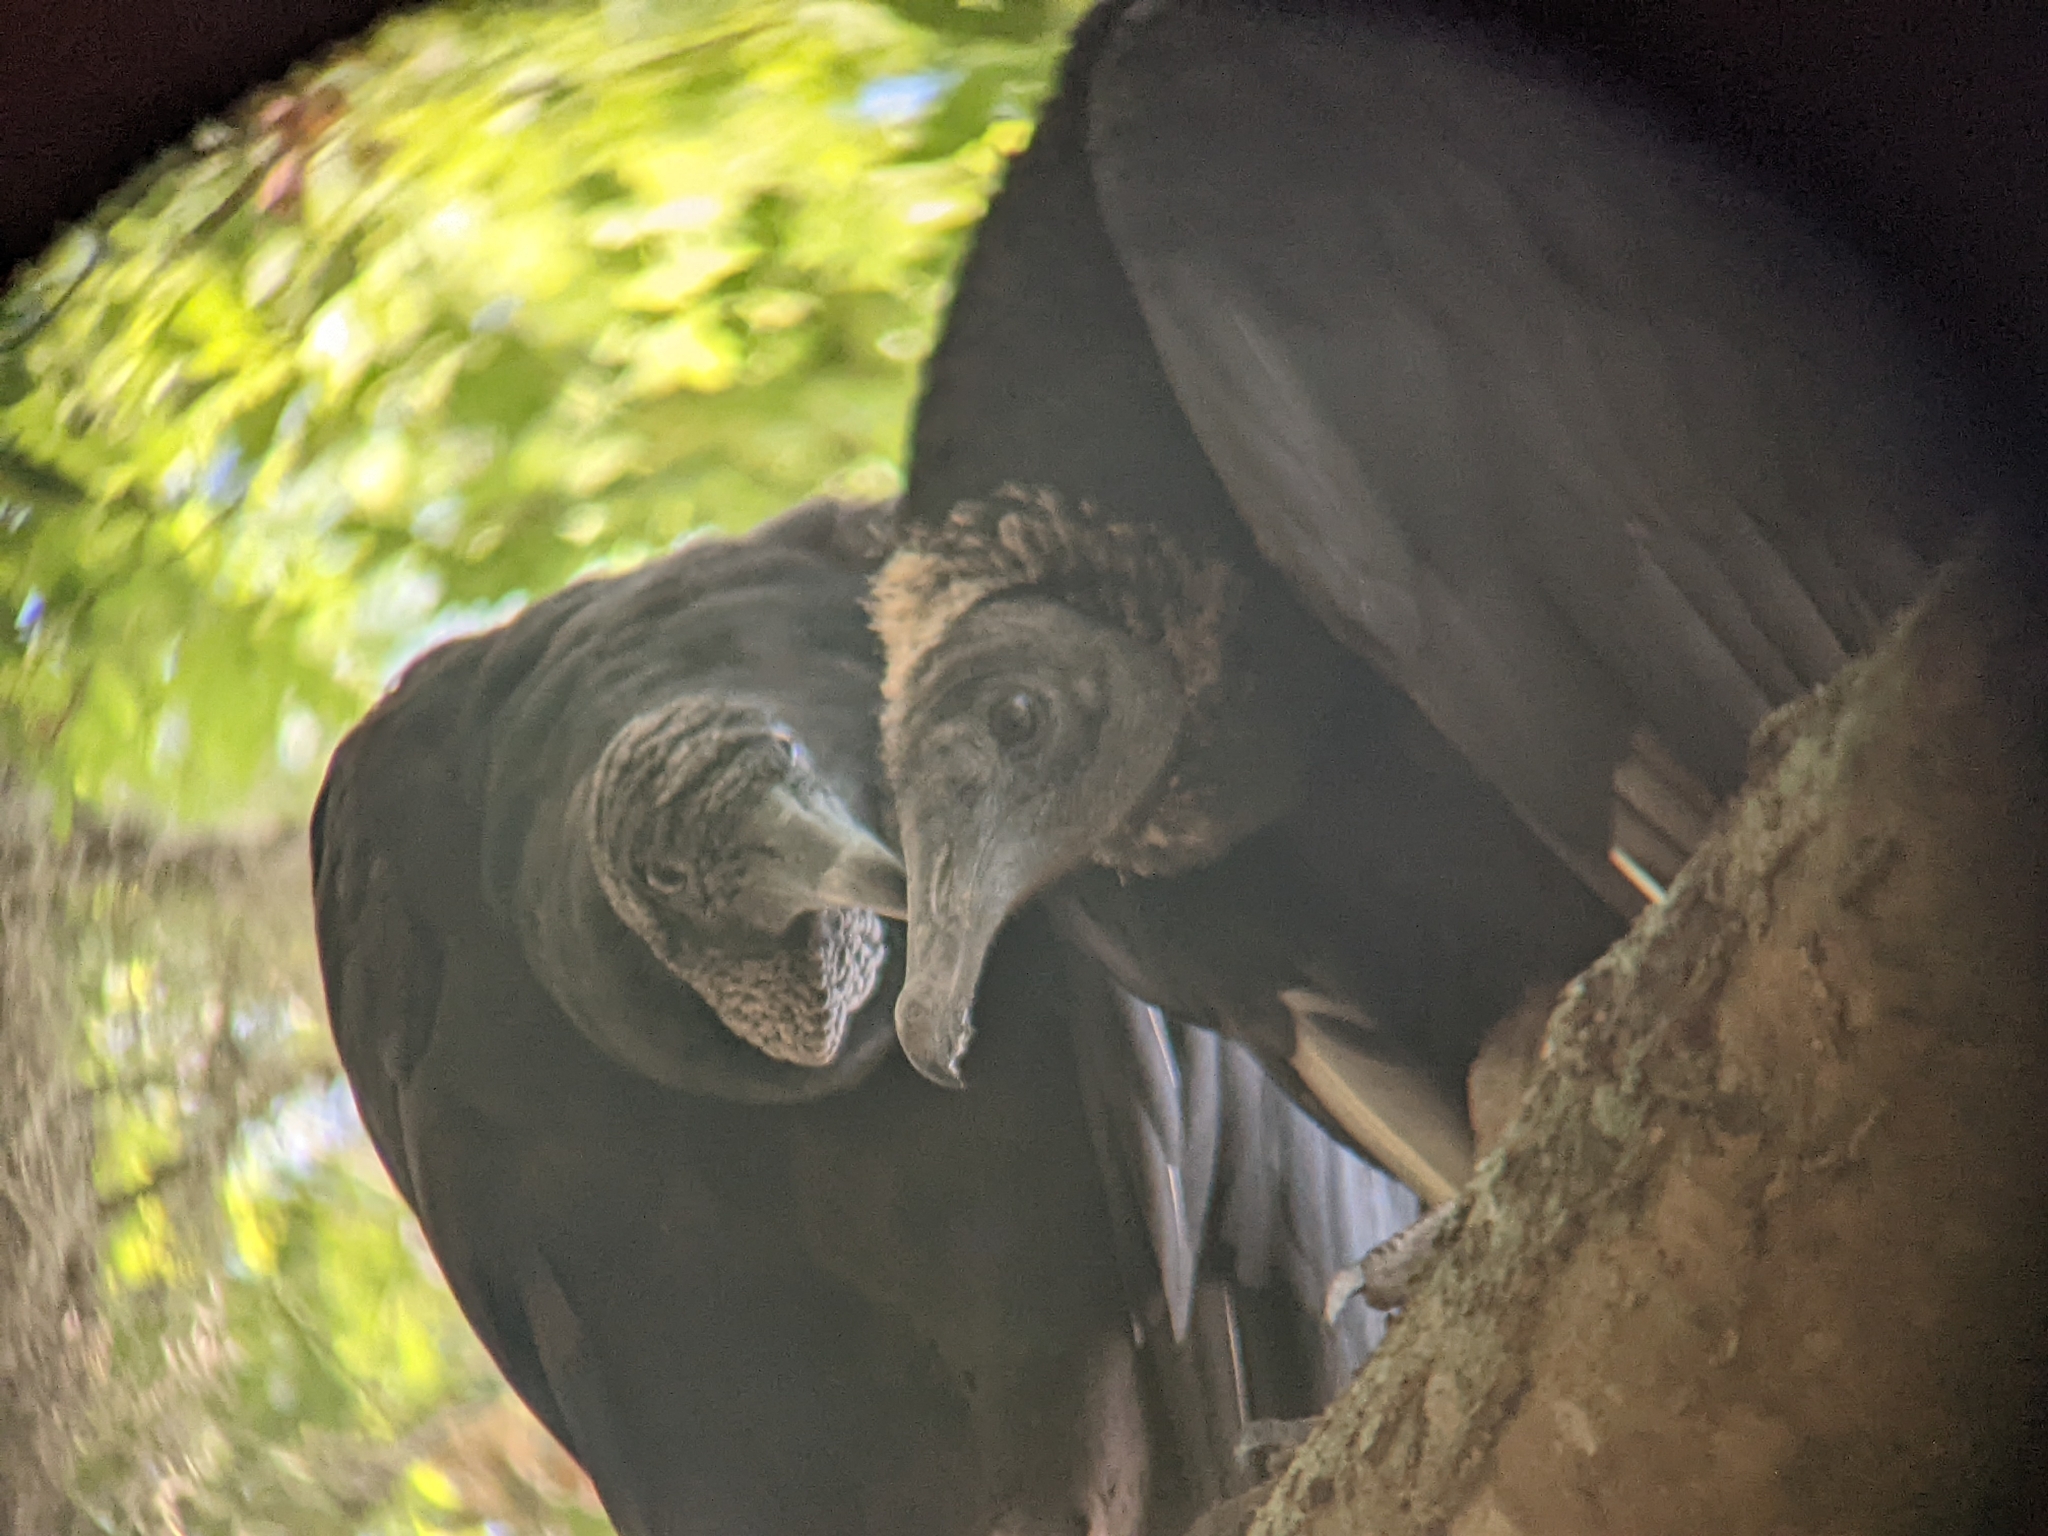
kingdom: Animalia
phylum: Chordata
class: Aves
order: Accipitriformes
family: Cathartidae
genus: Coragyps
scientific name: Coragyps atratus
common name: Black vulture
